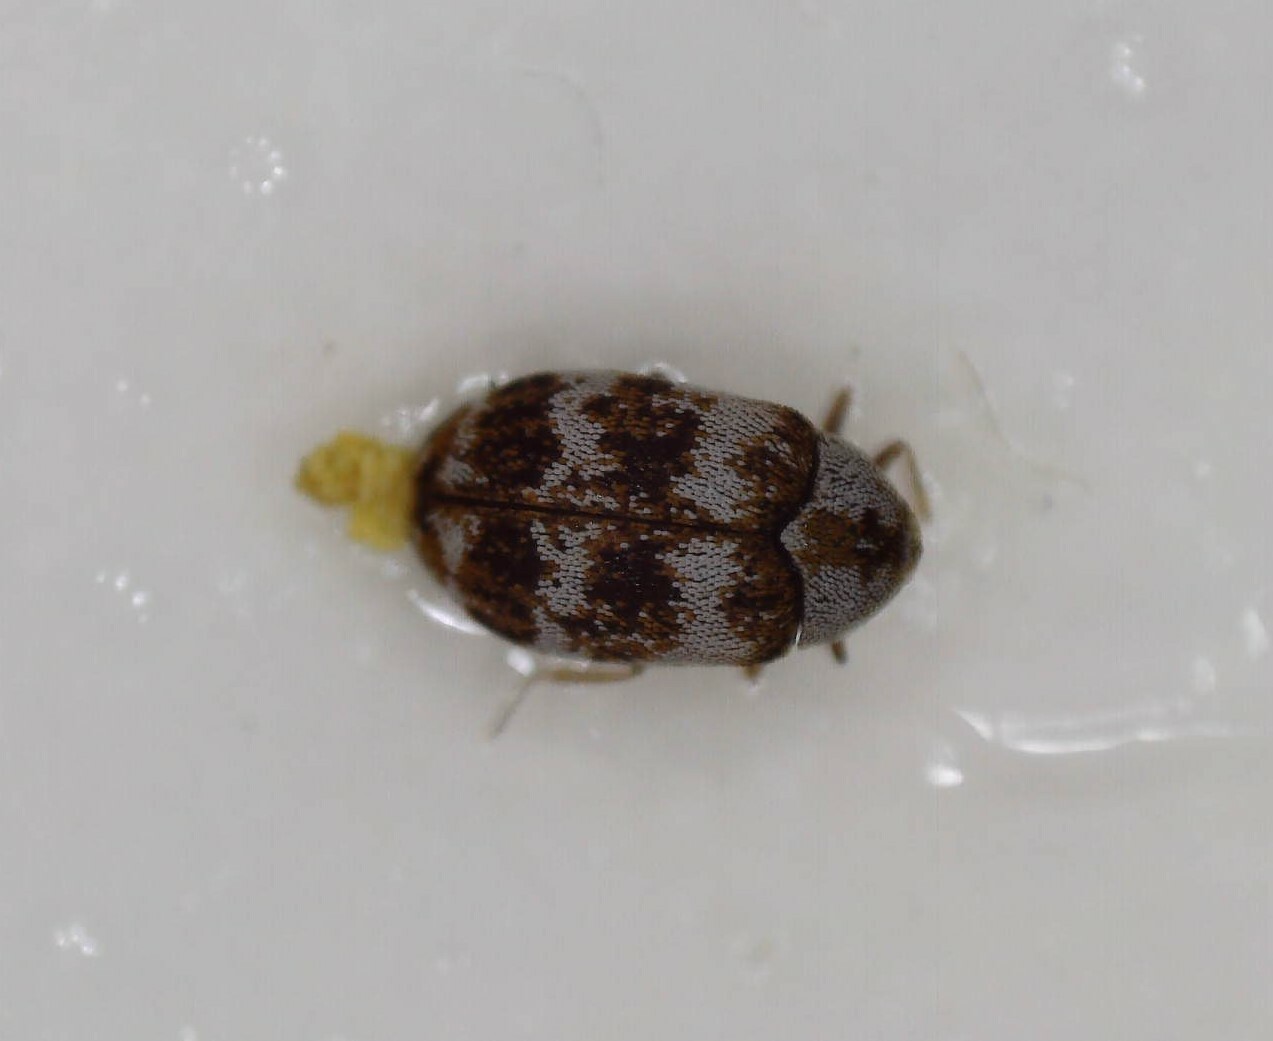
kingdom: Animalia
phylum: Arthropoda
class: Insecta
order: Coleoptera
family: Dermestidae
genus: Anthrenus
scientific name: Anthrenus coloratus
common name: Auger beetle
